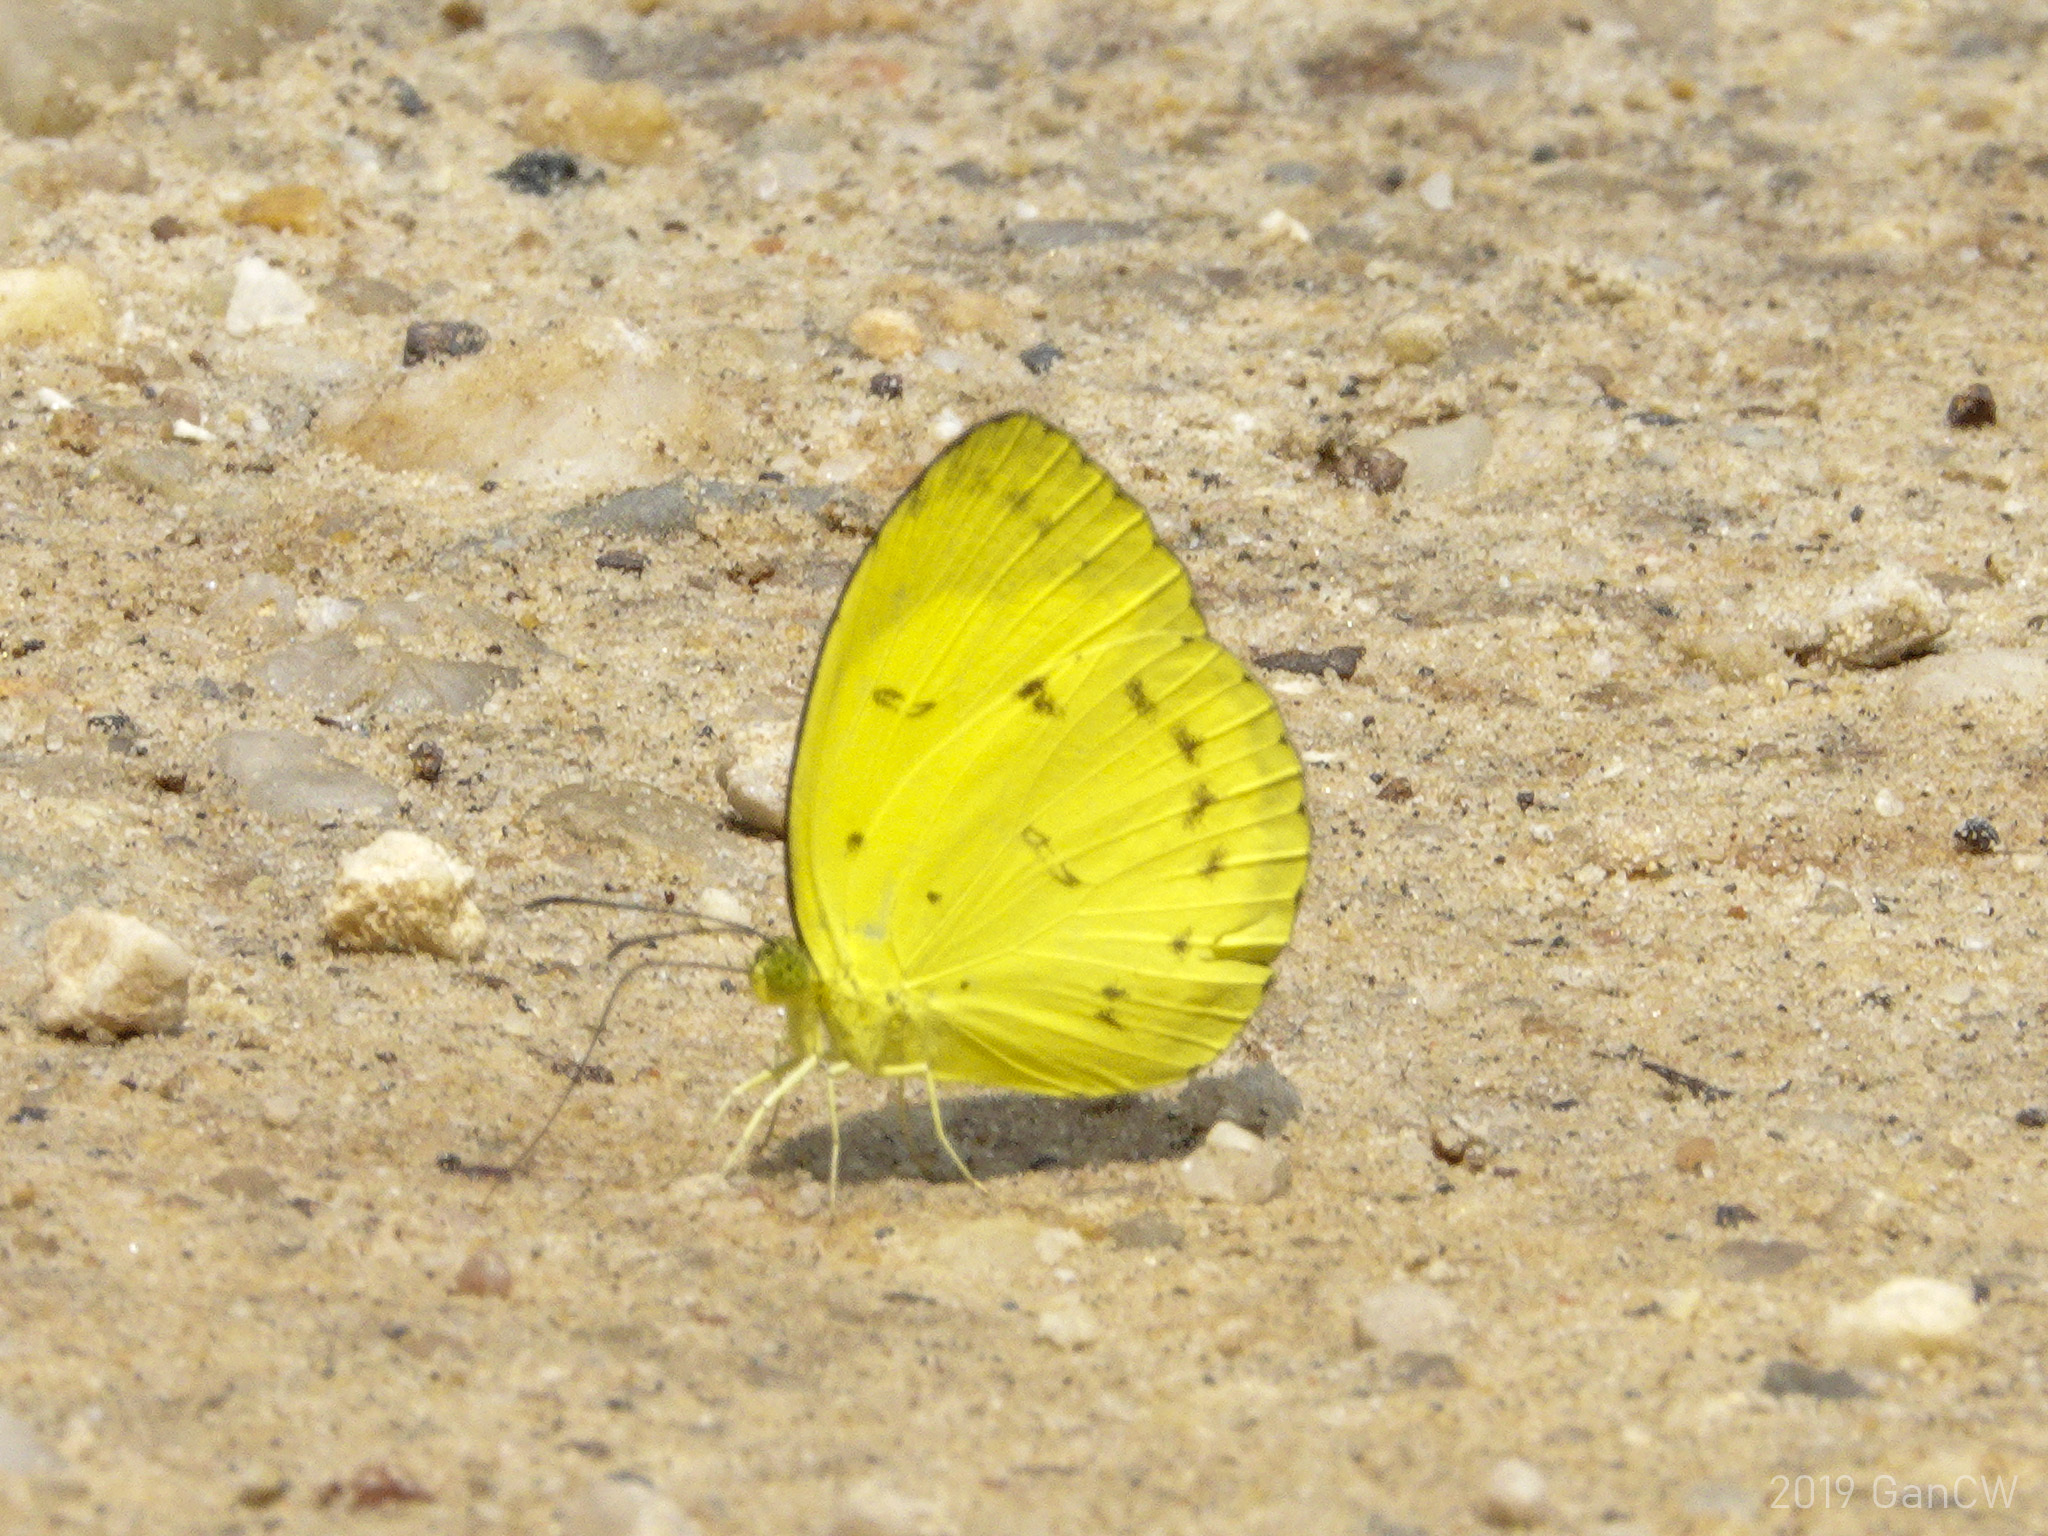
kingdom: Animalia
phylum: Arthropoda
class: Insecta
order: Lepidoptera
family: Pieridae
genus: Eurema
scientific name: Eurema nicevillei
